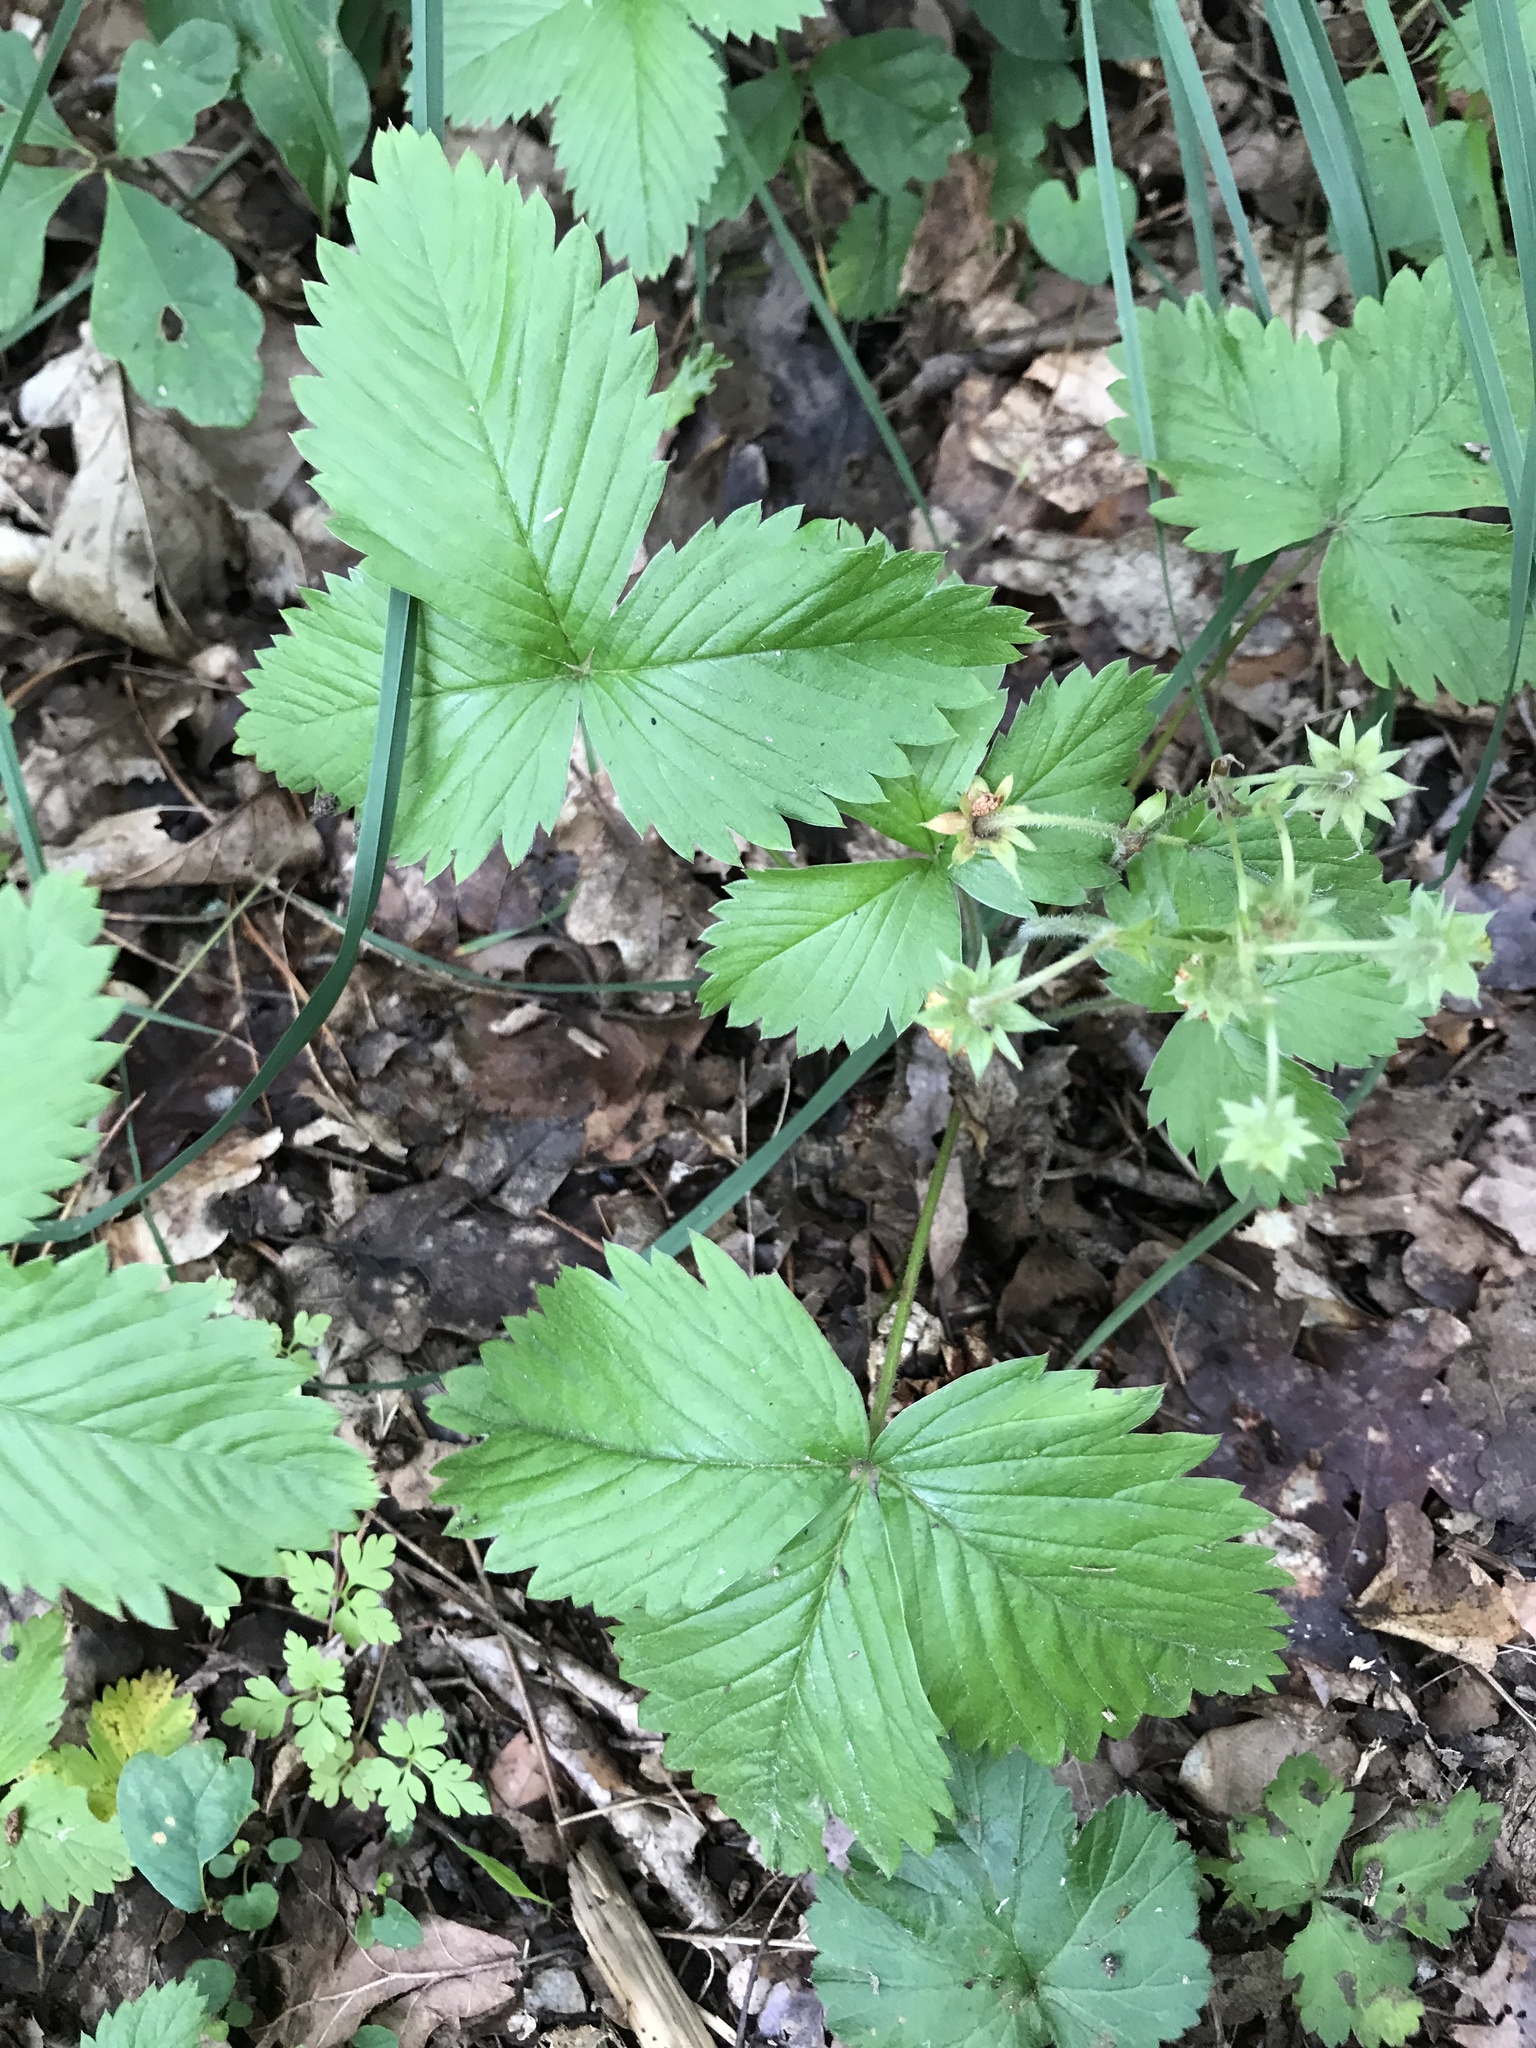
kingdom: Plantae
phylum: Tracheophyta
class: Magnoliopsida
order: Rosales
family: Rosaceae
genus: Fragaria
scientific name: Fragaria vesca
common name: Wild strawberry
